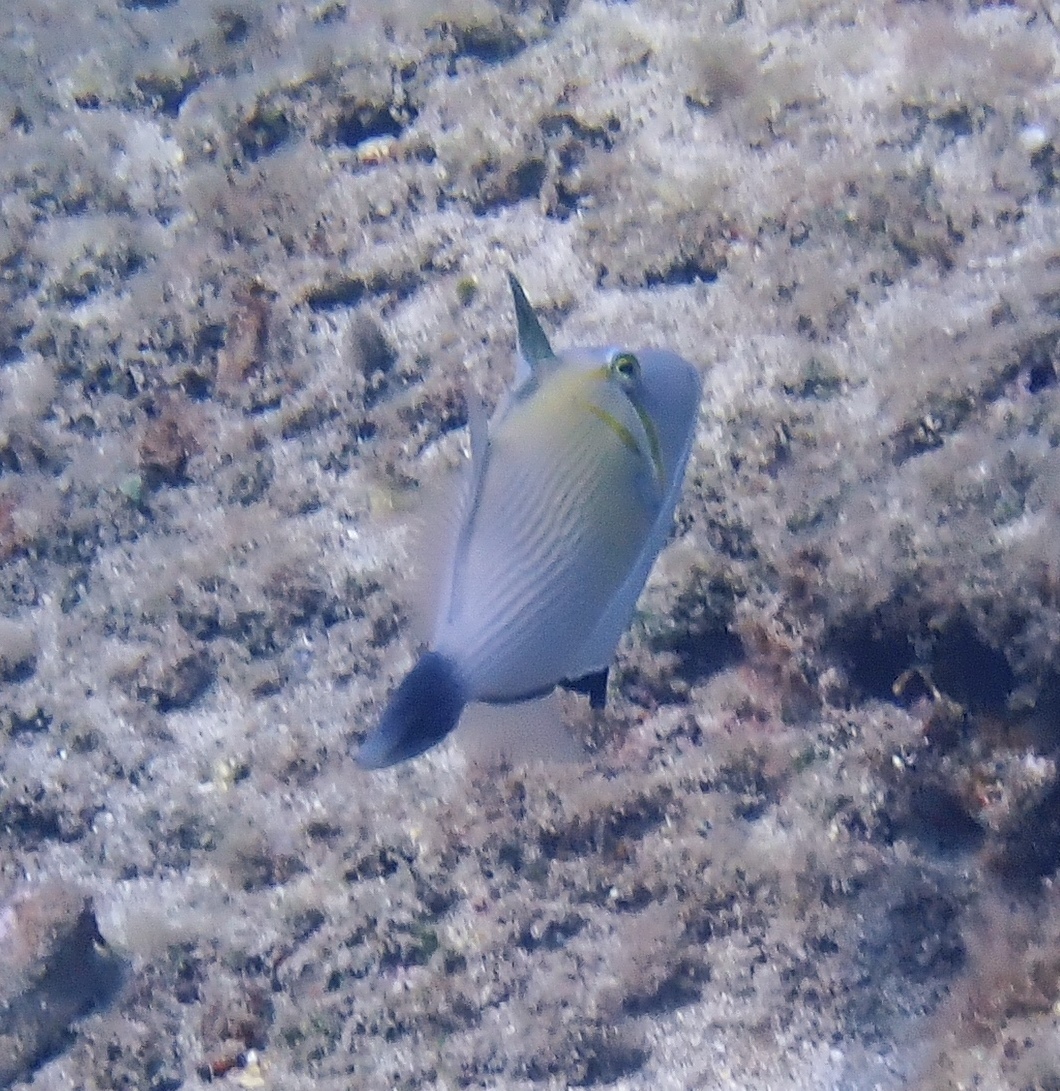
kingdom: Animalia
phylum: Chordata
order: Tetraodontiformes
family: Balistidae
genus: Sufflamen
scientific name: Sufflamen bursa
